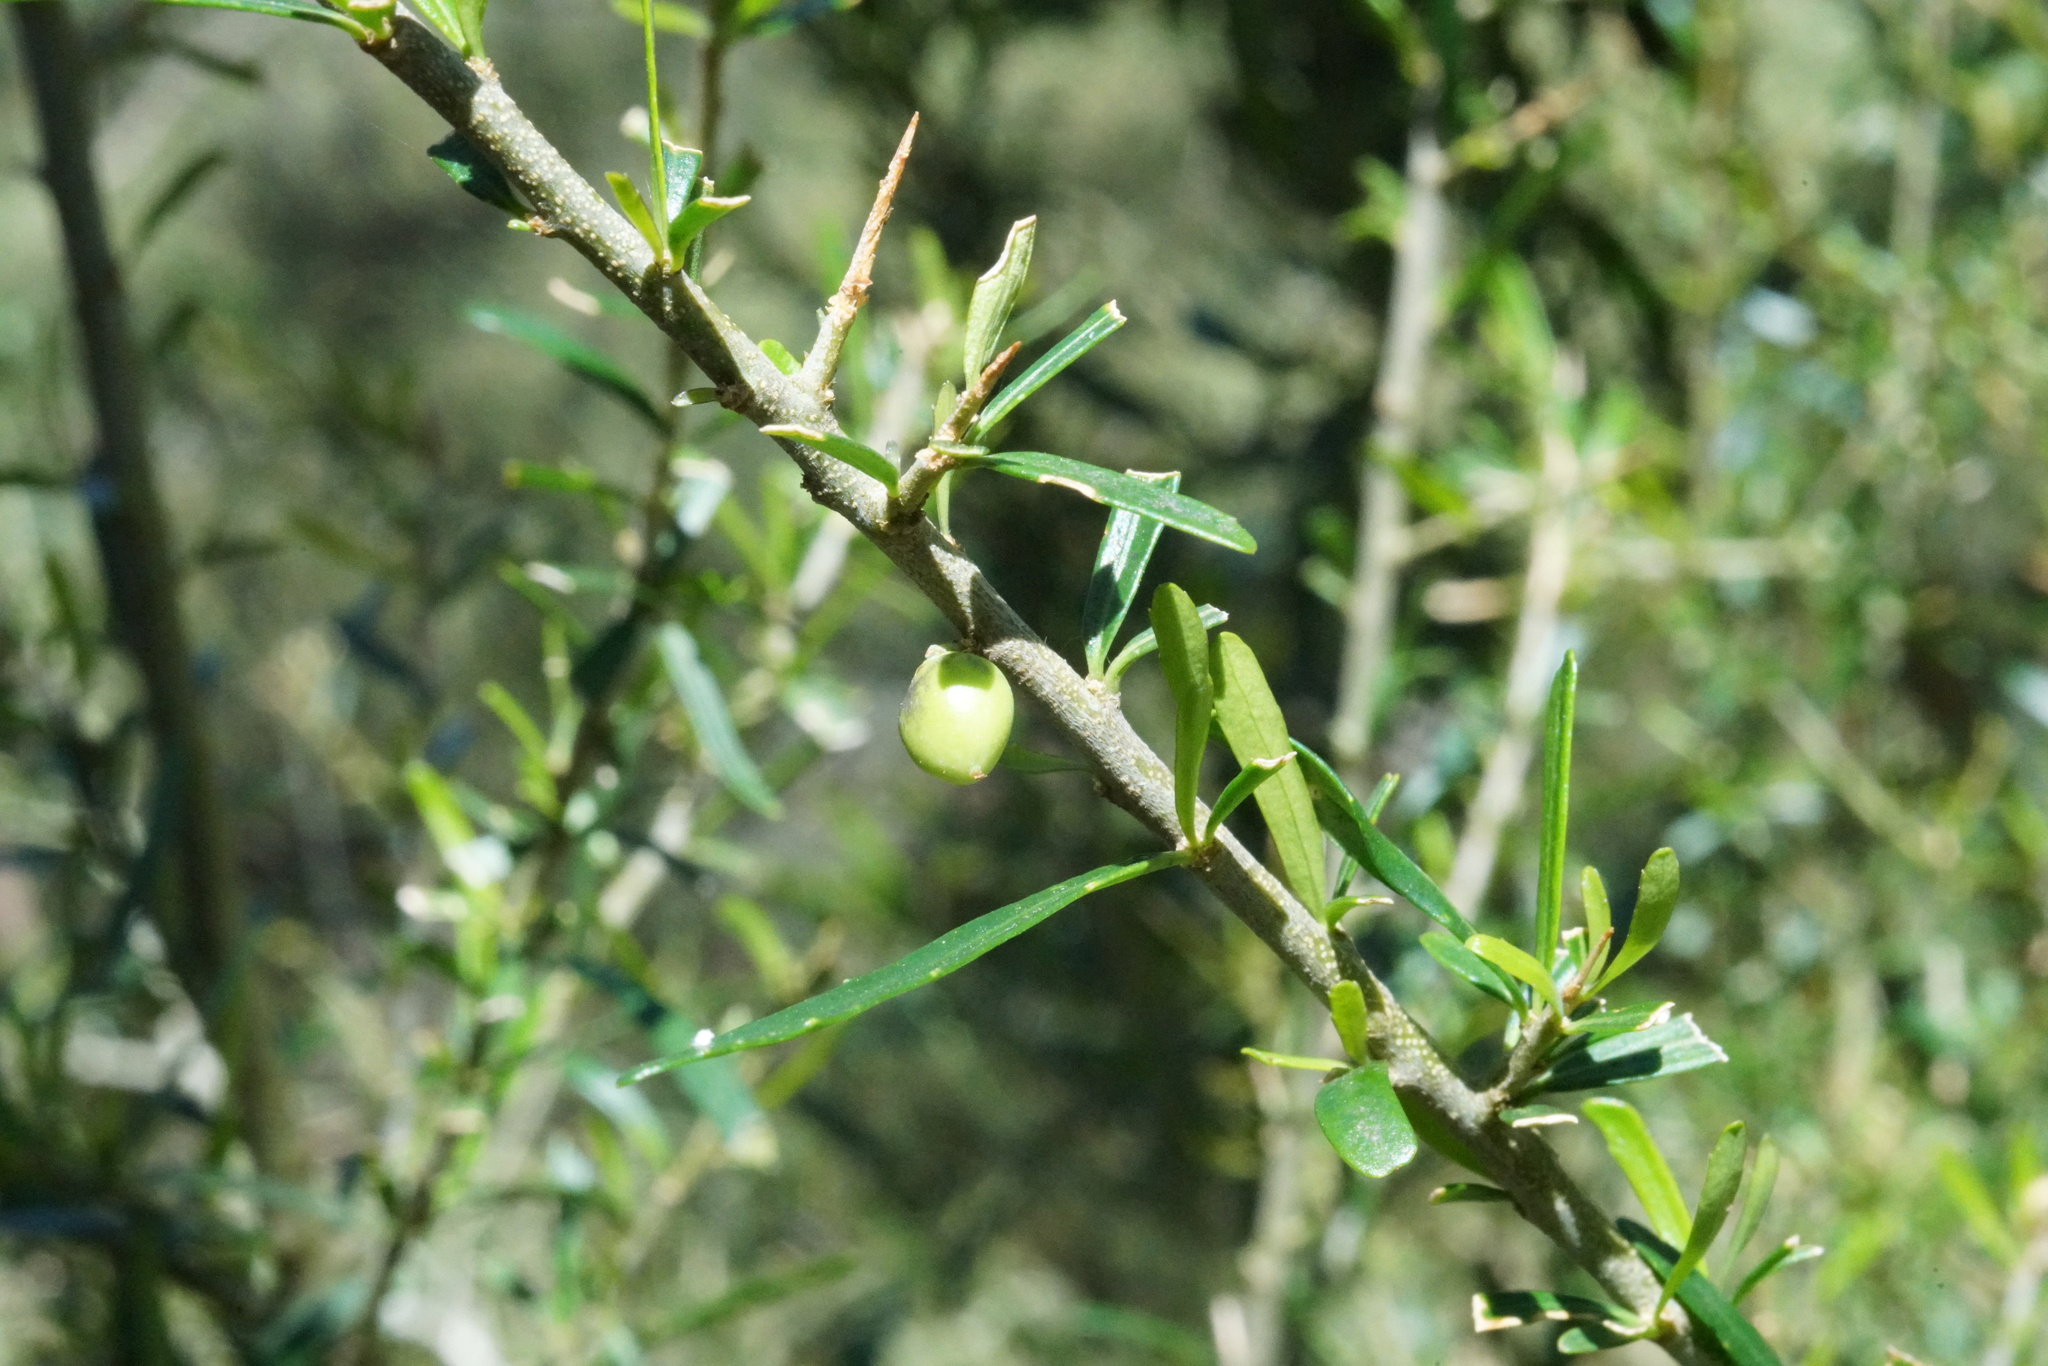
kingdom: Plantae
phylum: Tracheophyta
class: Magnoliopsida
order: Malpighiales
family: Violaceae
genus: Melicytus
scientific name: Melicytus dentatus
